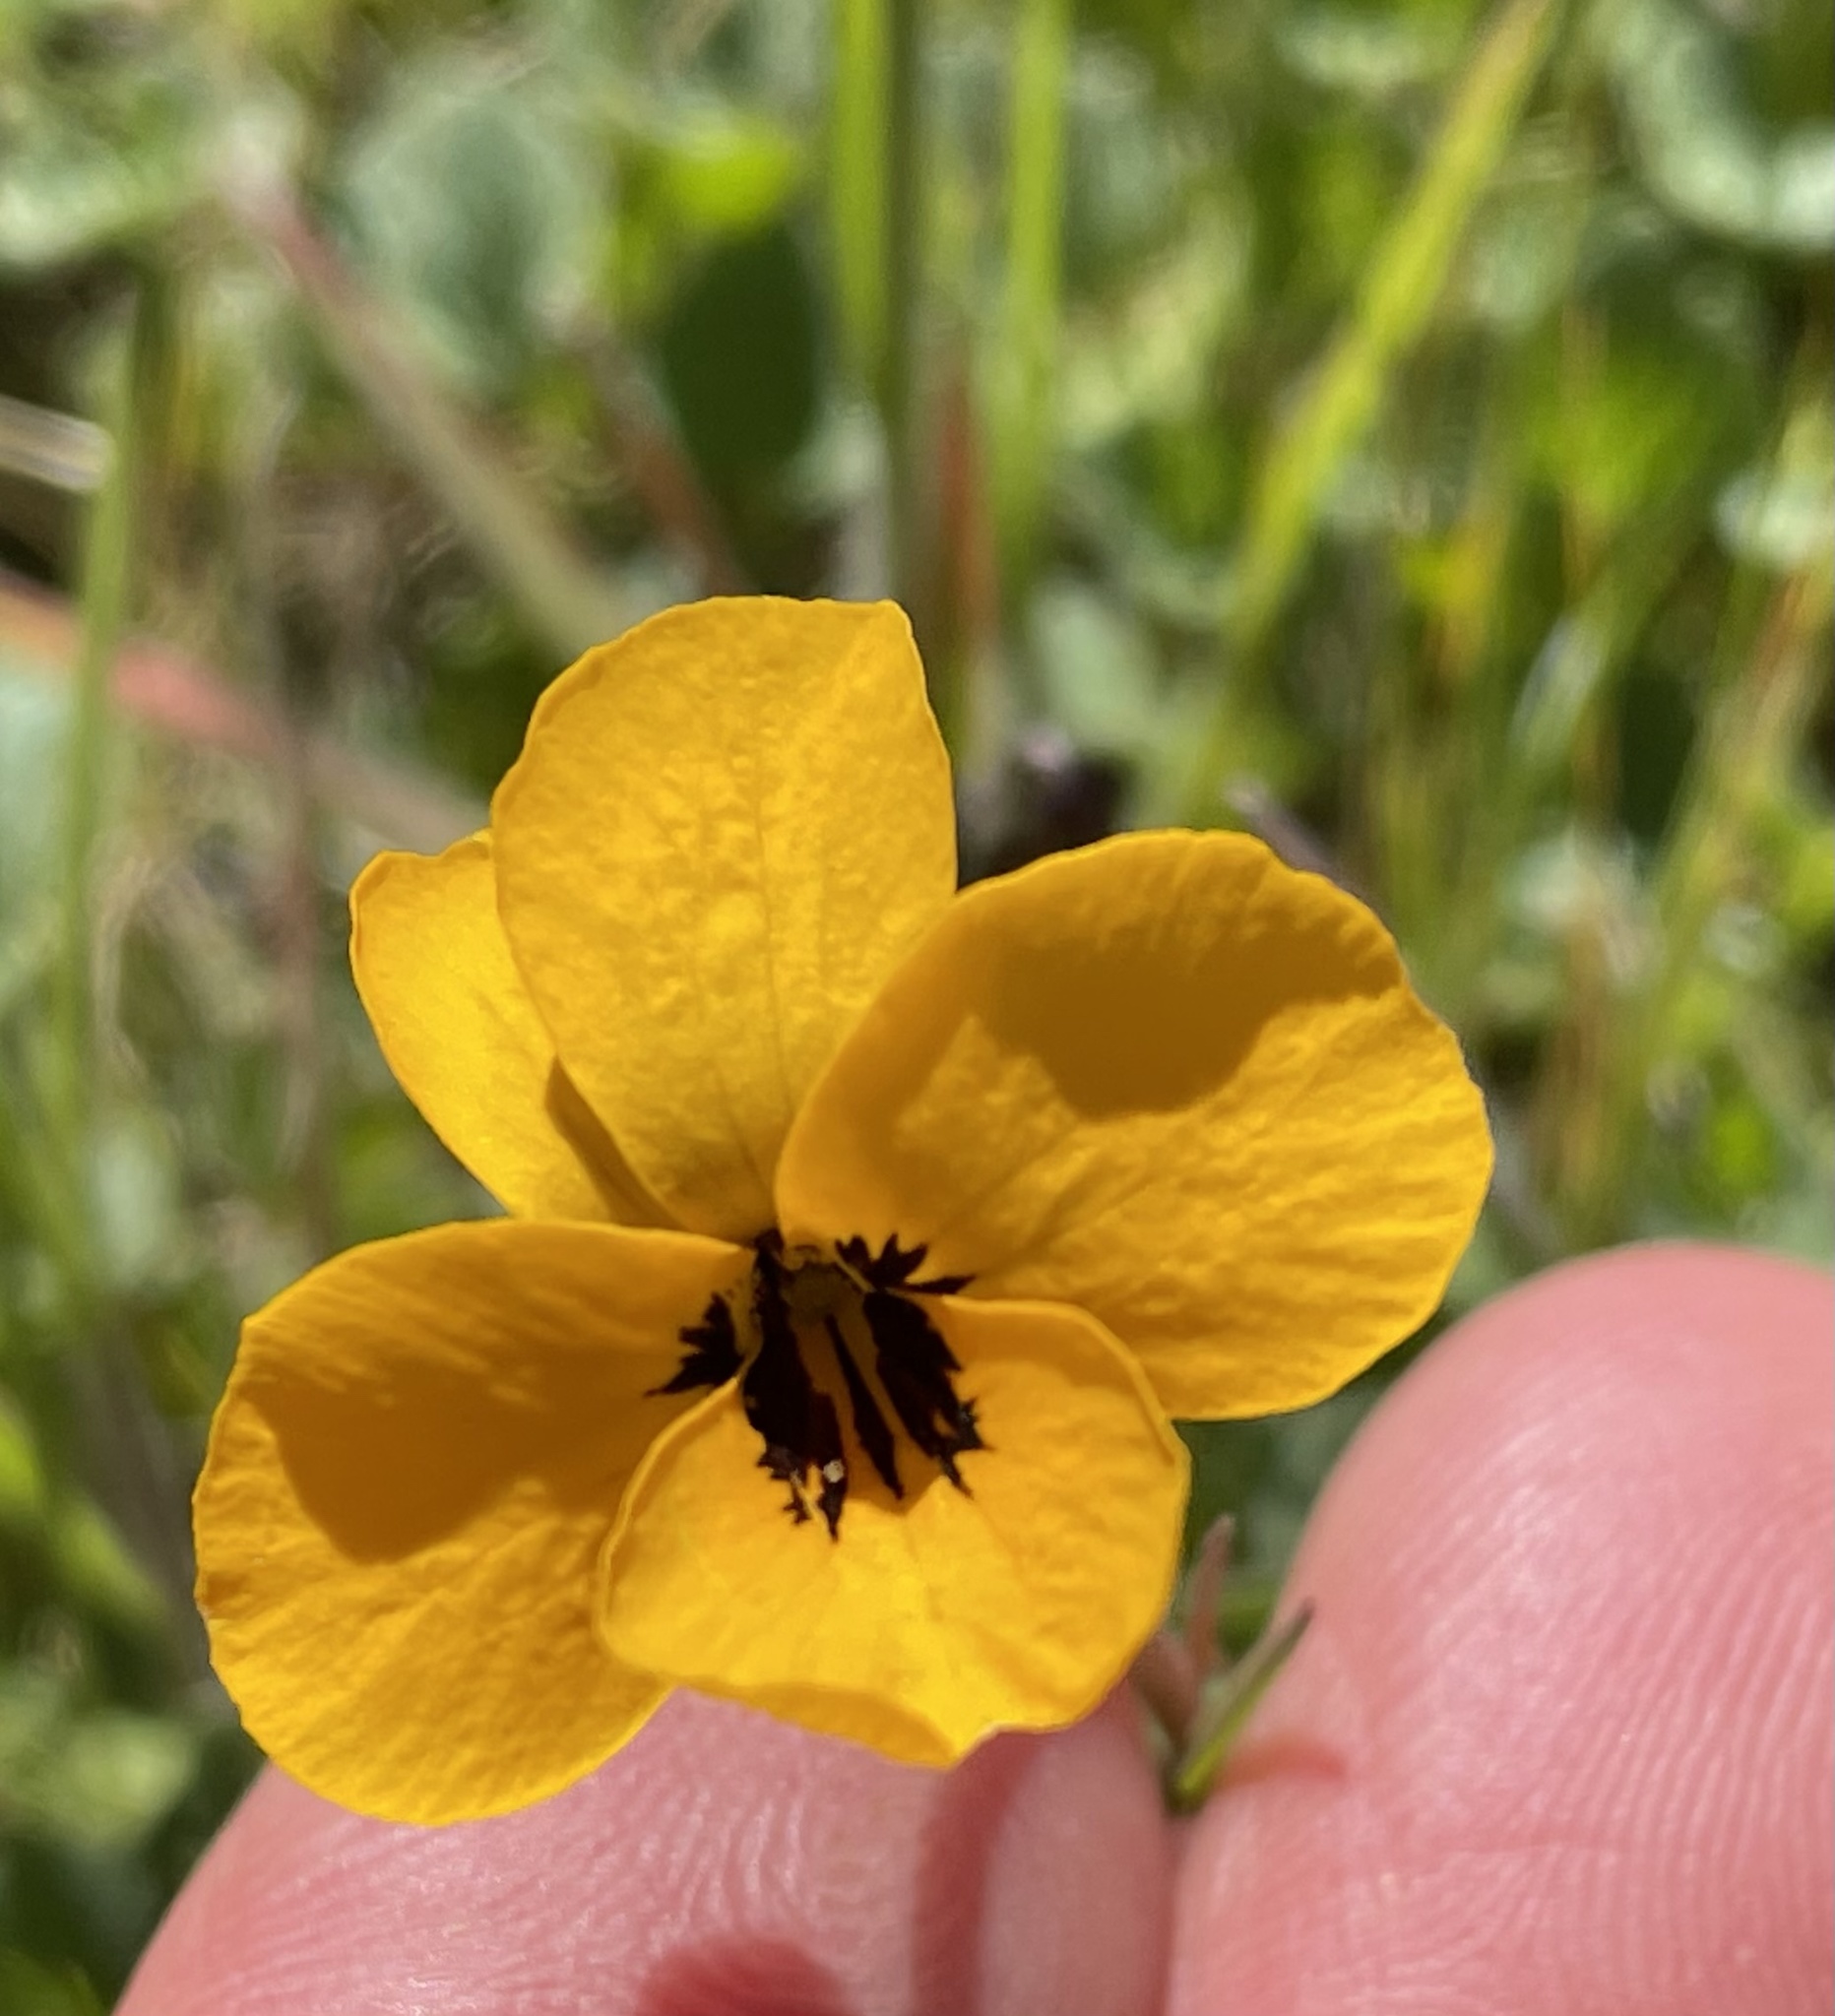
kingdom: Plantae
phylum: Tracheophyta
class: Magnoliopsida
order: Malpighiales
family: Violaceae
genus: Viola
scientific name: Viola pedunculata
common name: California golden violet
